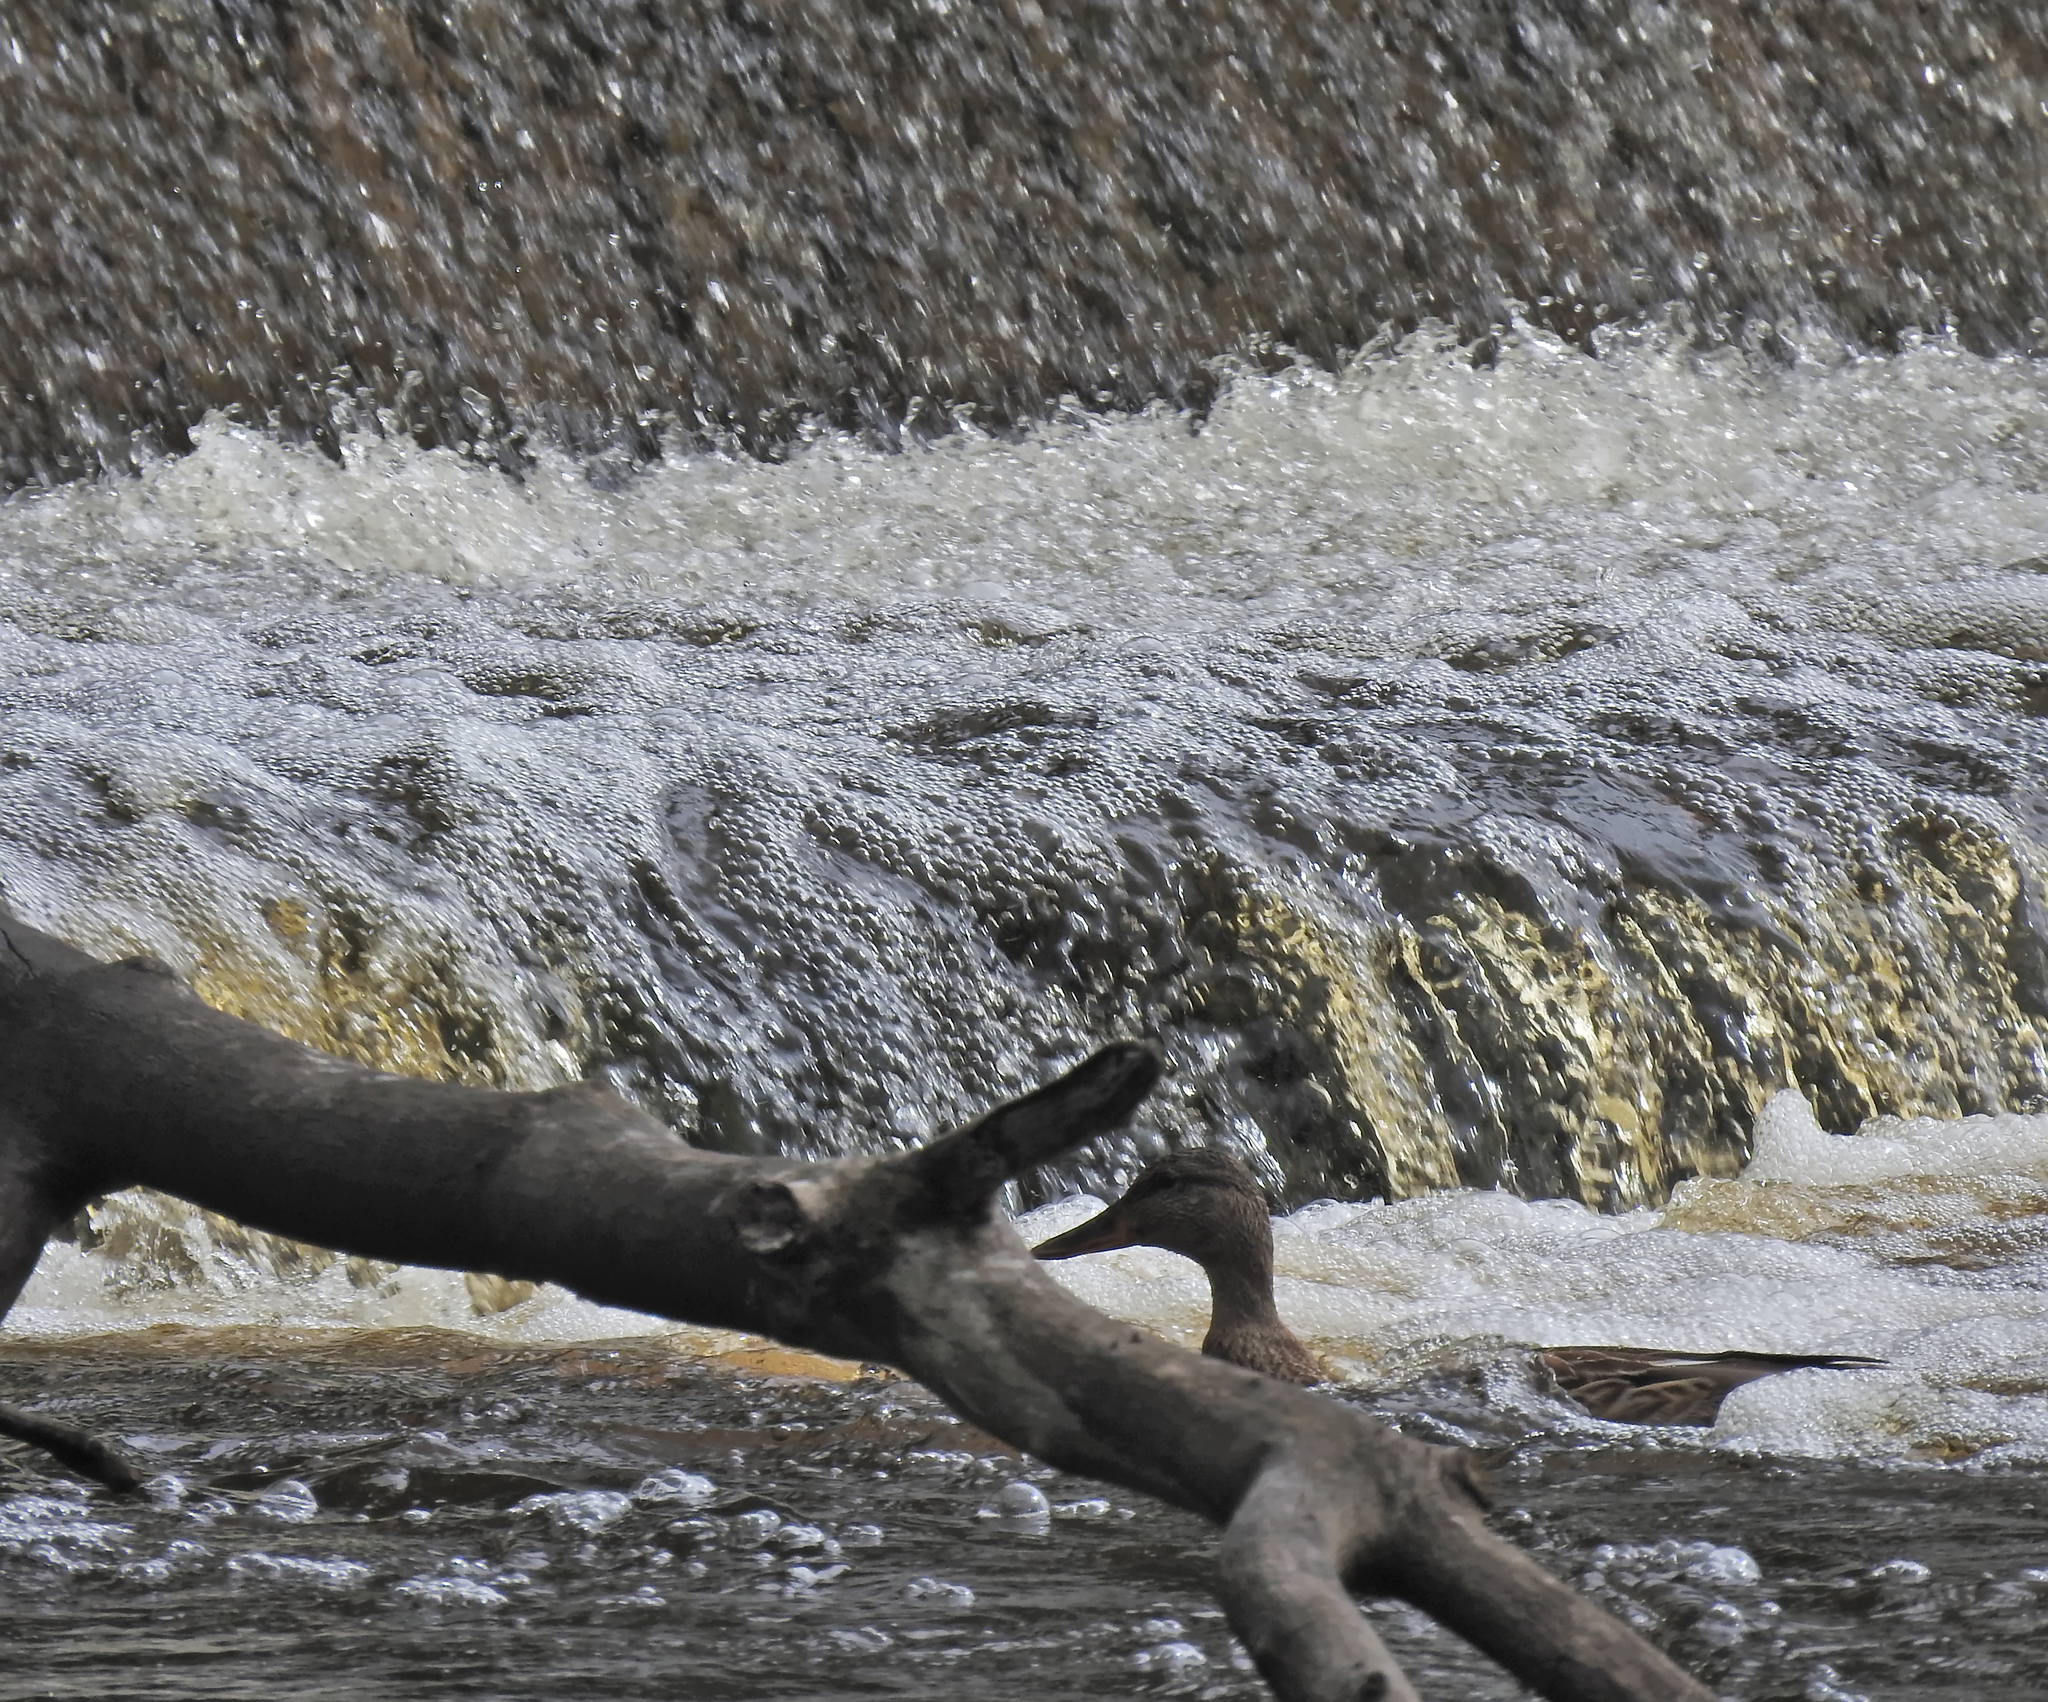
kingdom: Animalia
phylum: Chordata
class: Aves
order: Anseriformes
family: Anatidae
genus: Anas
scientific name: Anas platyrhynchos
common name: Mallard
